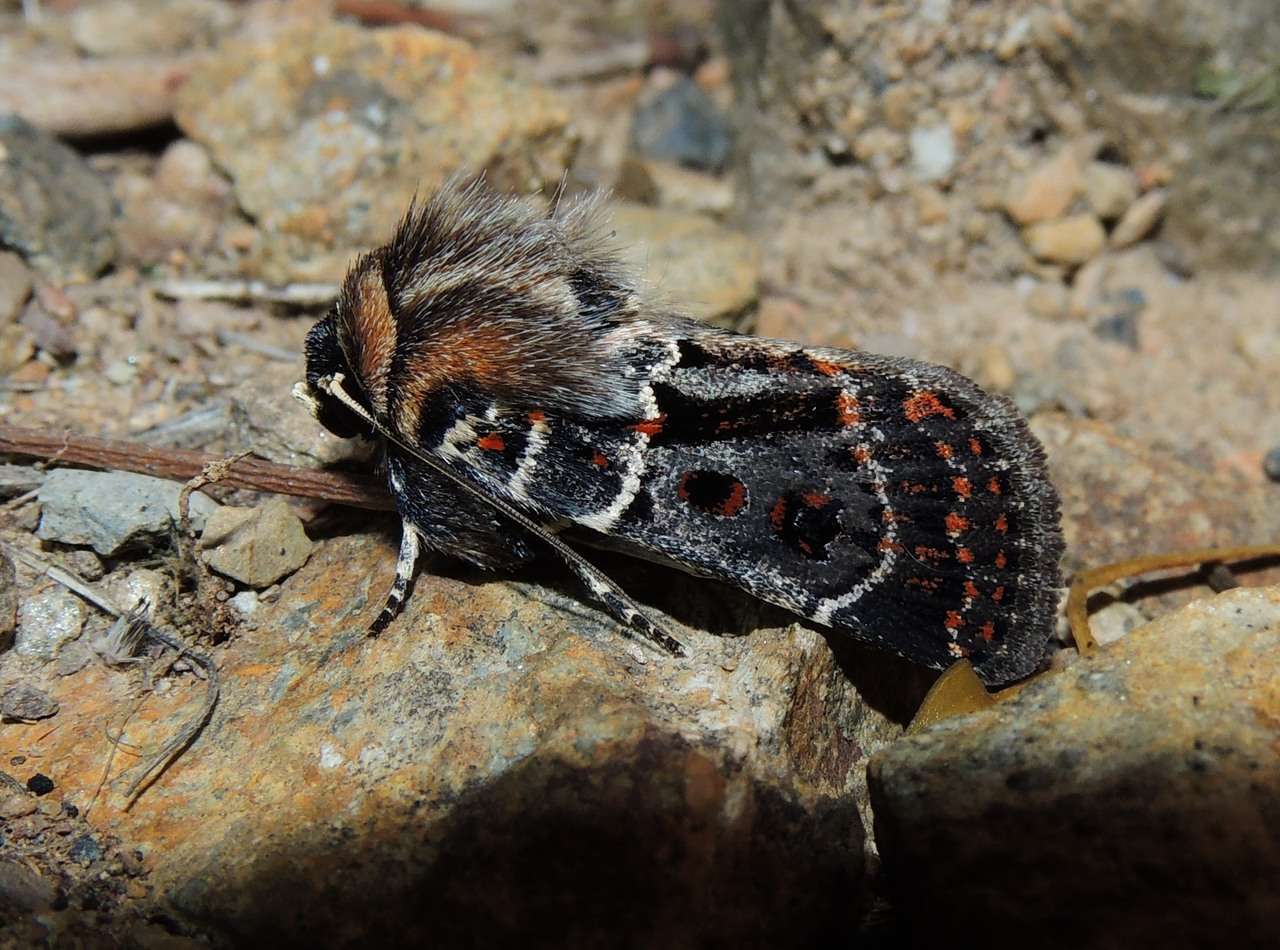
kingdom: Animalia
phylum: Arthropoda
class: Insecta
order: Lepidoptera
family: Noctuidae
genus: Proteuxoa
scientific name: Proteuxoa sanguinipuncta
